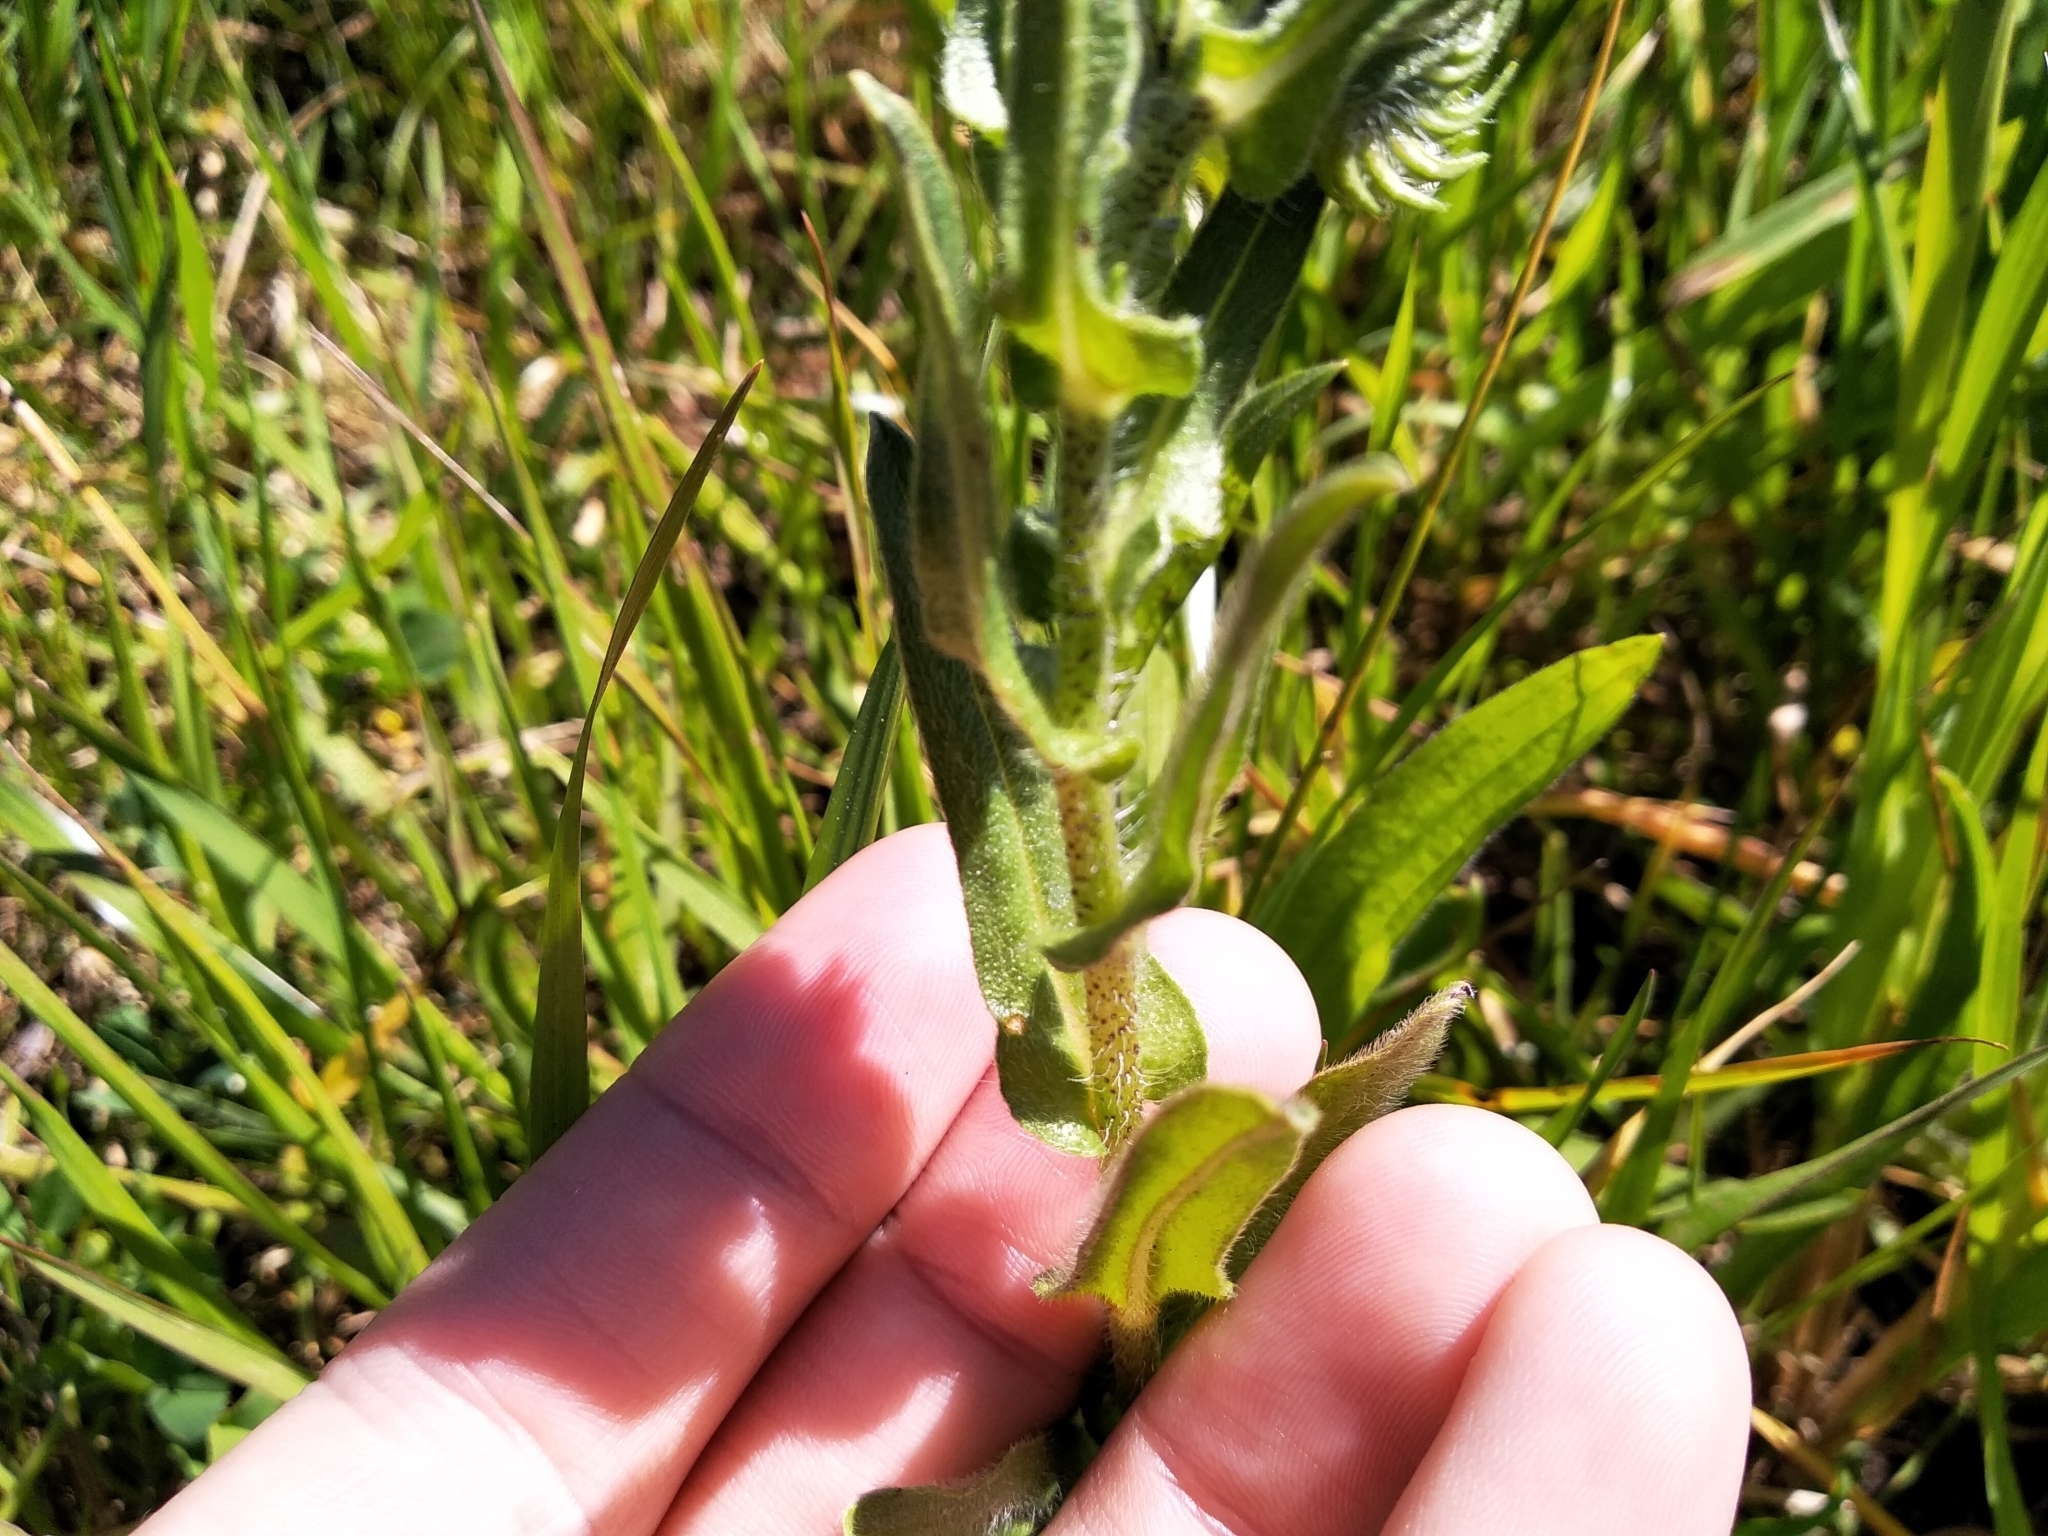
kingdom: Plantae
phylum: Tracheophyta
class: Magnoliopsida
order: Boraginales
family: Boraginaceae
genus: Echium
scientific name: Echium plantagineum
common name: Purple viper's-bugloss
